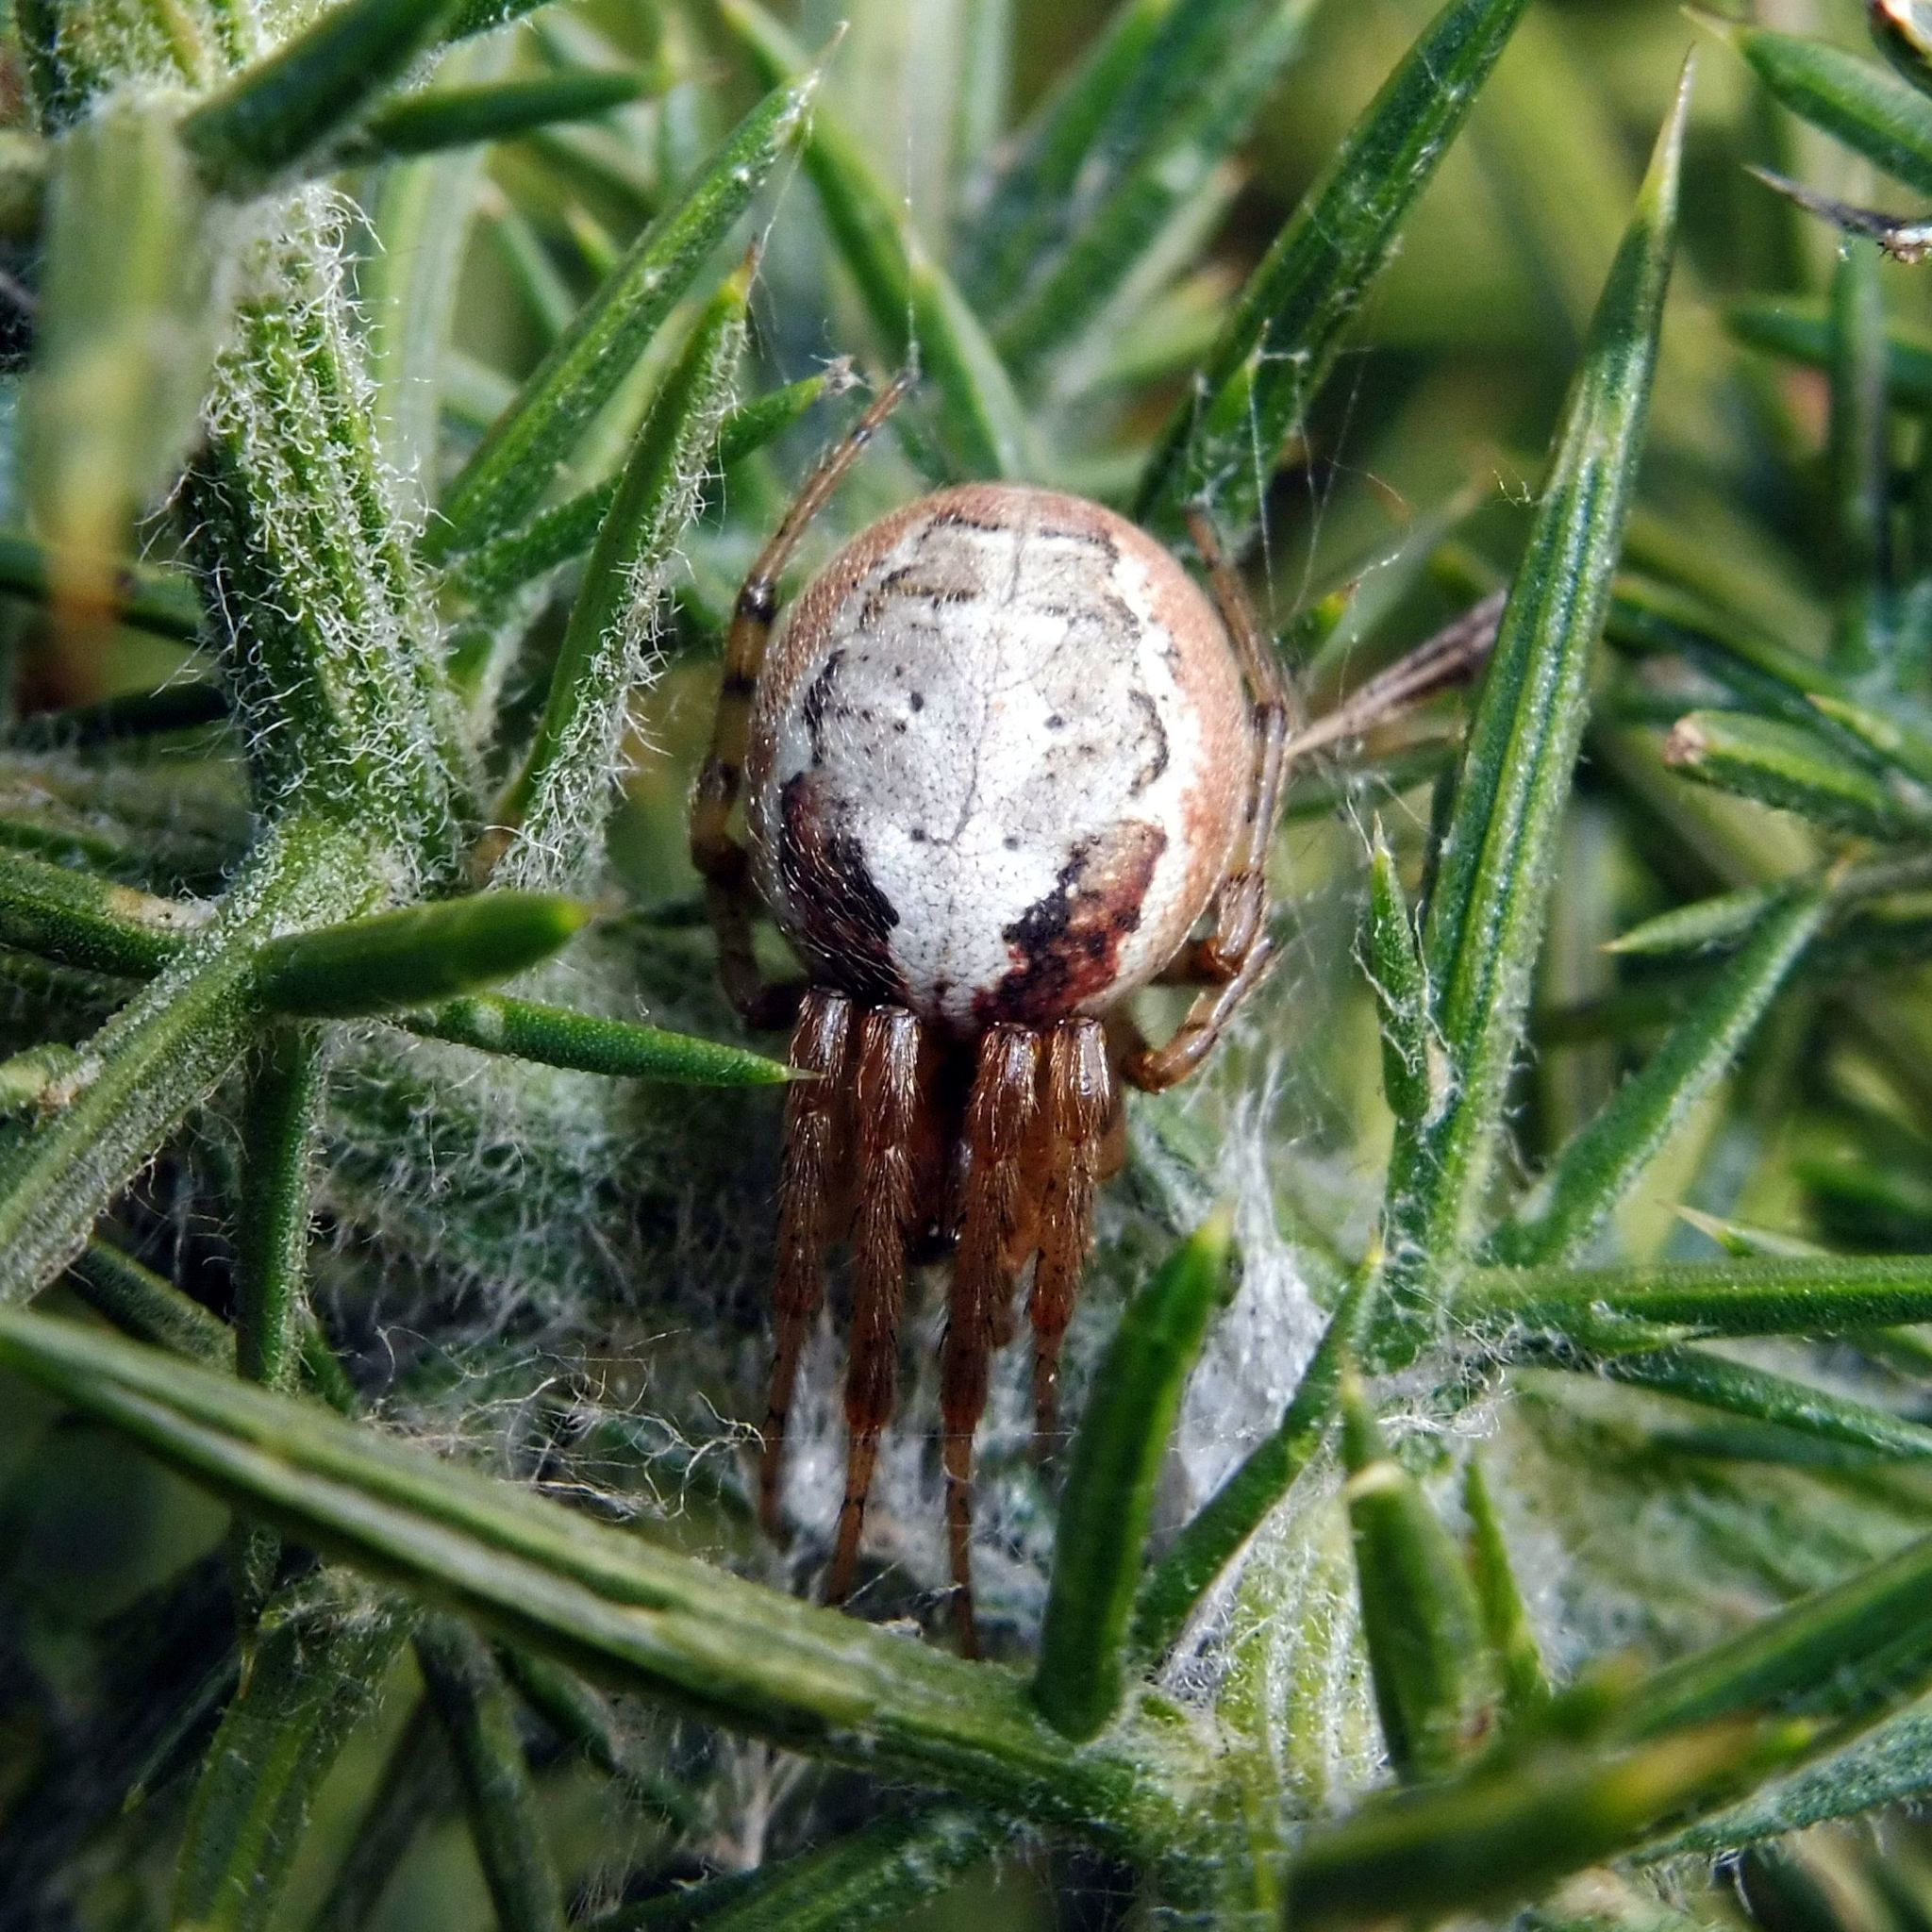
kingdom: Animalia
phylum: Arthropoda
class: Arachnida
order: Araneae
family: Araneidae
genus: Zygiella
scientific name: Zygiella atrica
